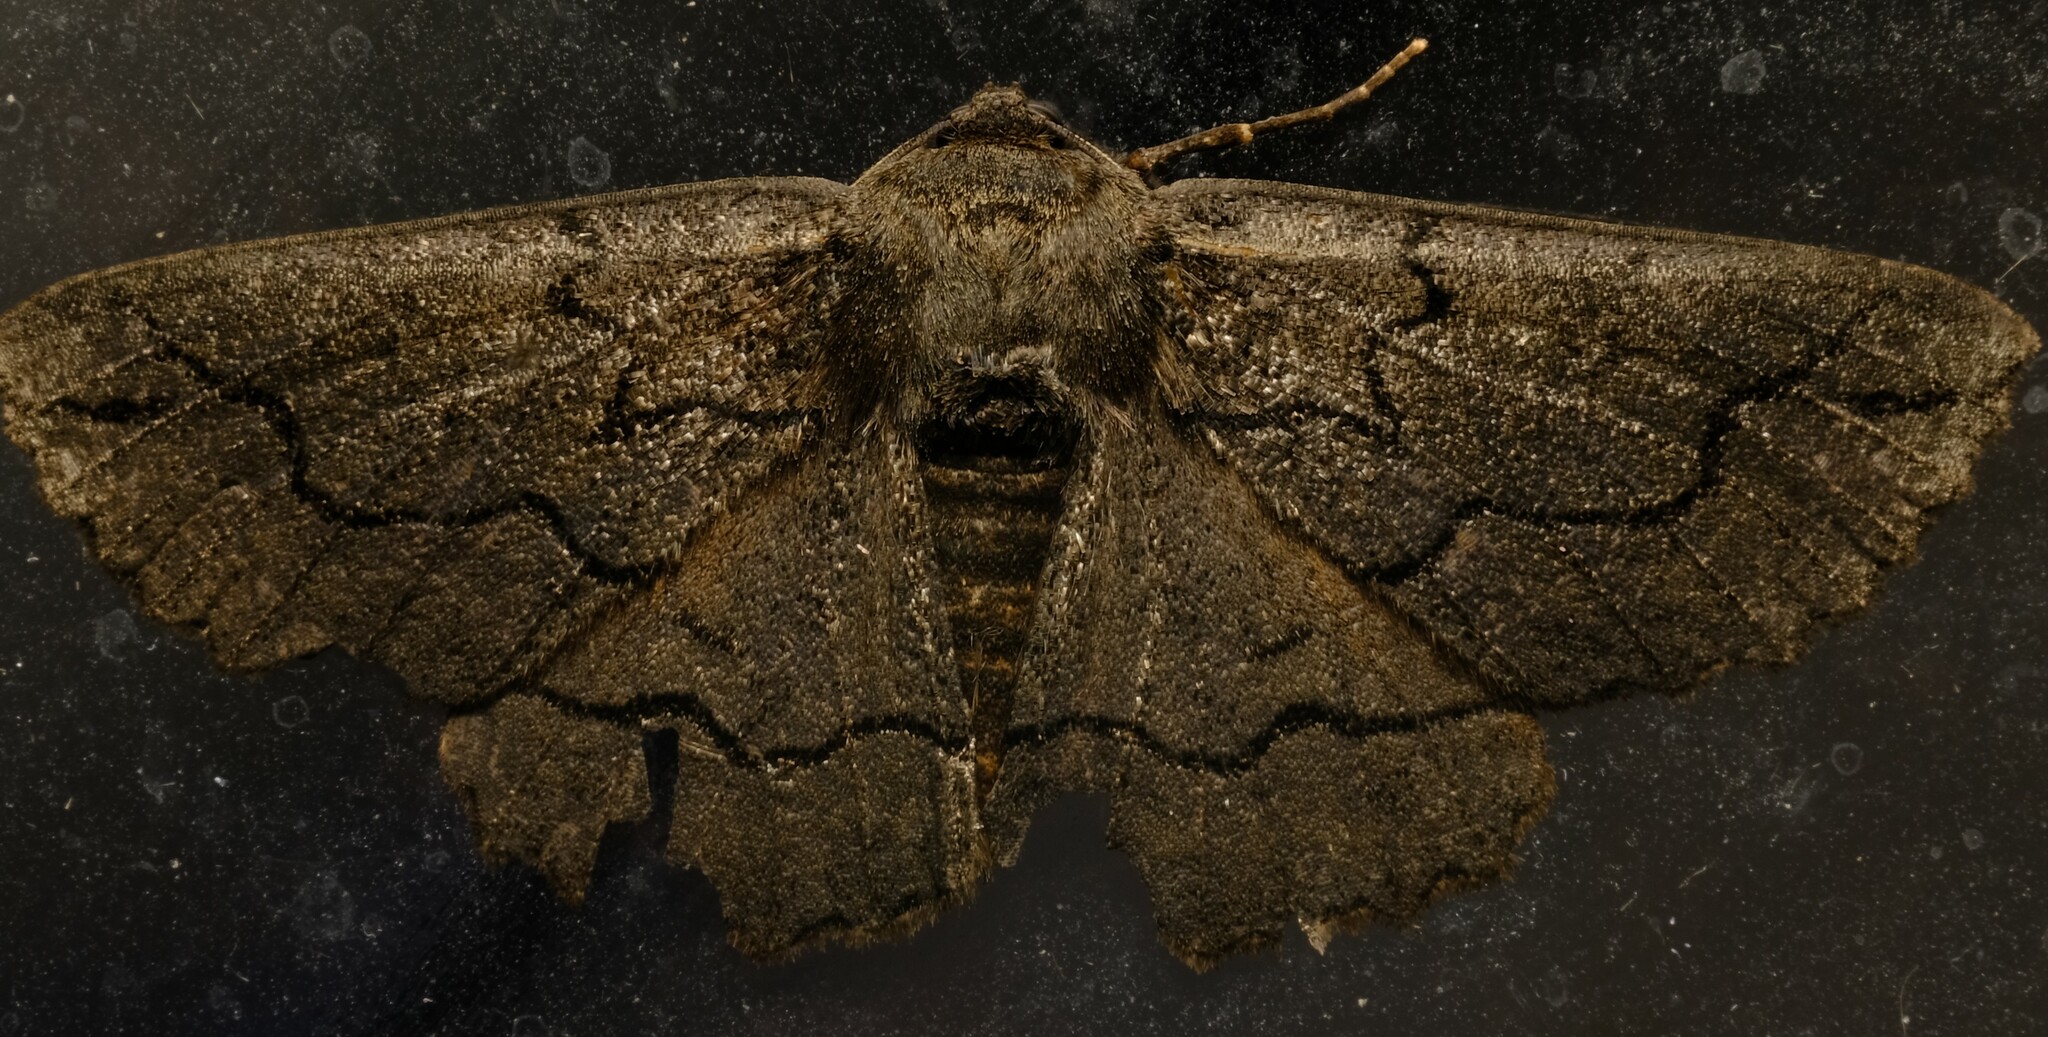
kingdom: Animalia
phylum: Arthropoda
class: Insecta
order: Lepidoptera
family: Geometridae
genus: Melanodes
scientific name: Melanodes anthracitaria
